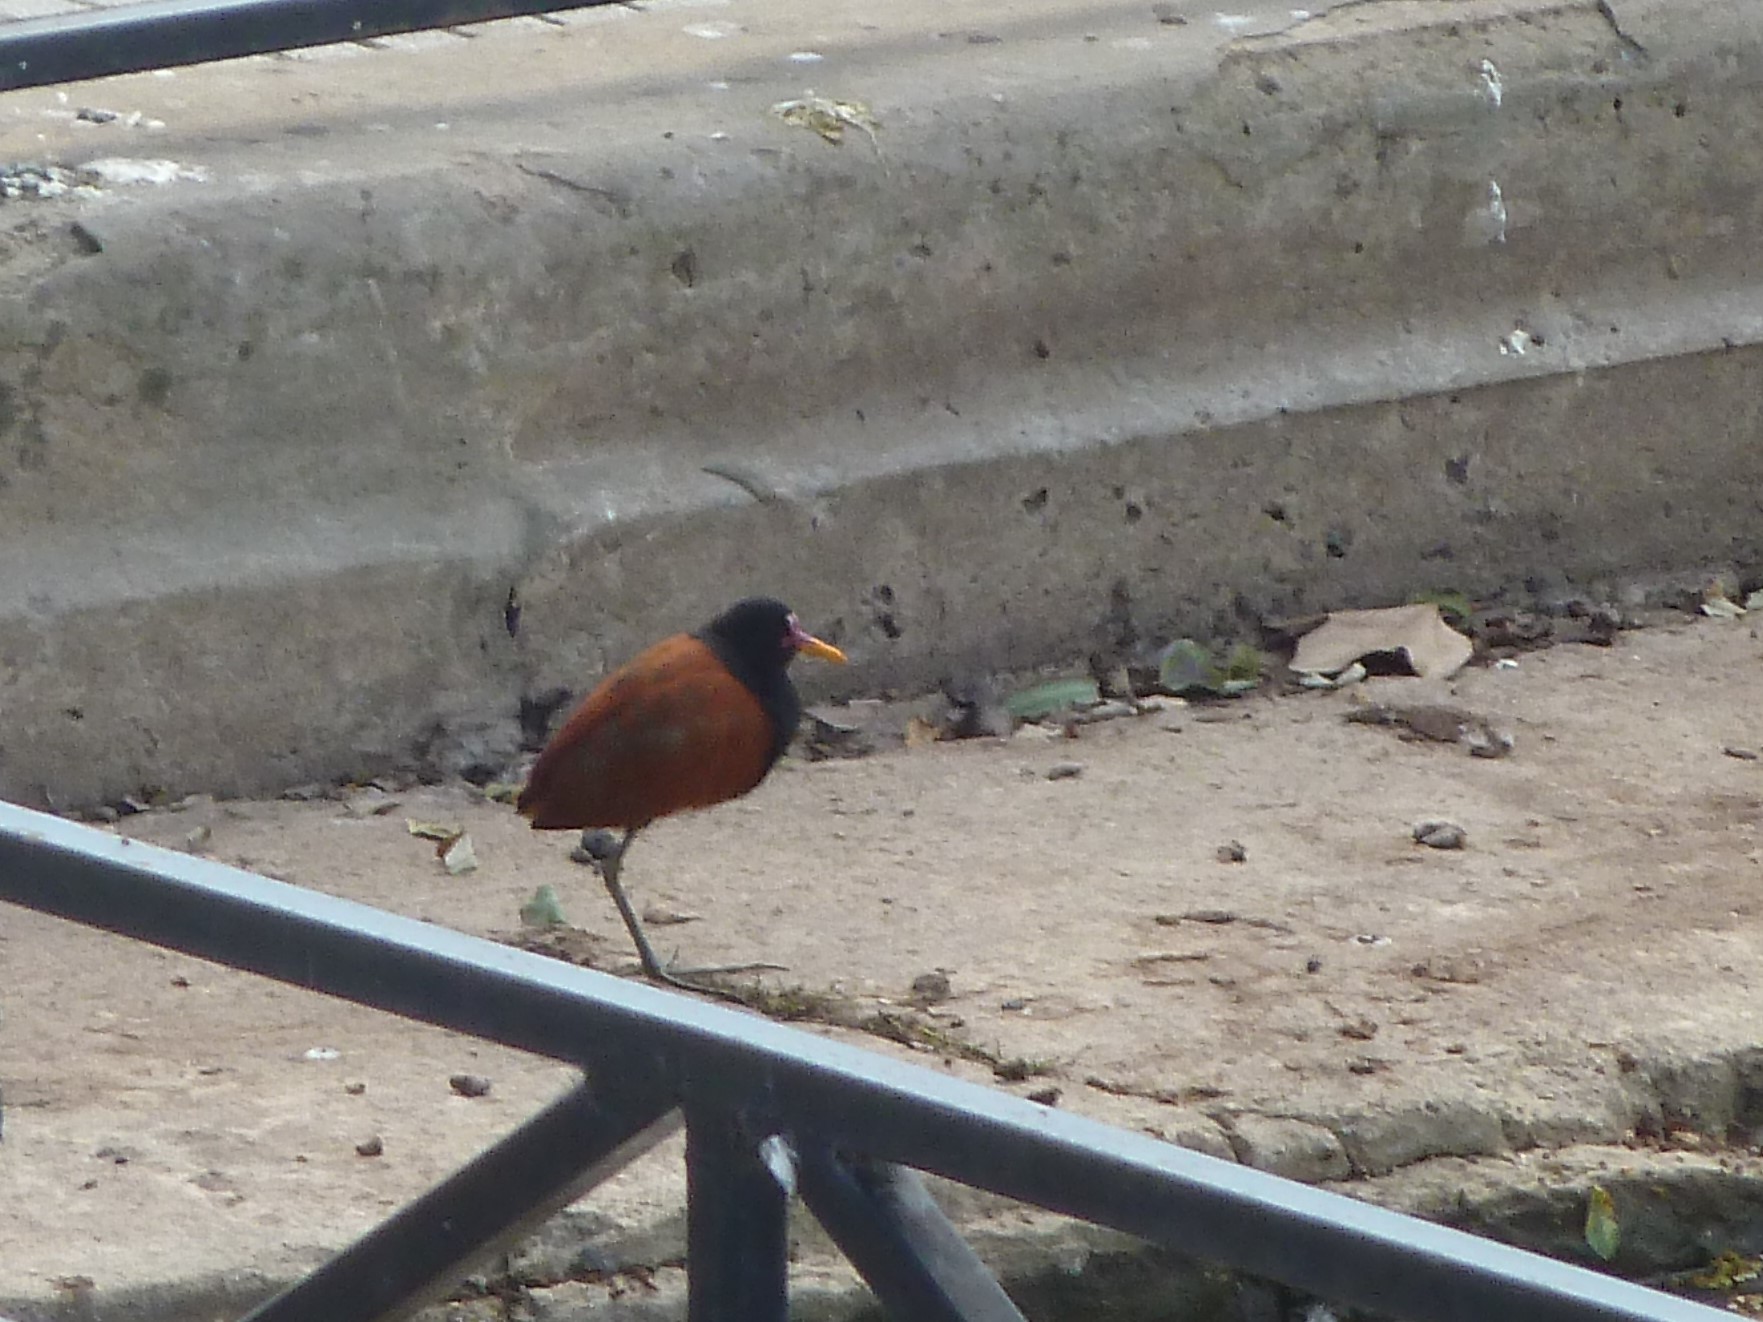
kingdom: Animalia
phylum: Chordata
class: Aves
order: Charadriiformes
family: Jacanidae
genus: Jacana
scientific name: Jacana jacana
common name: Wattled jacana
